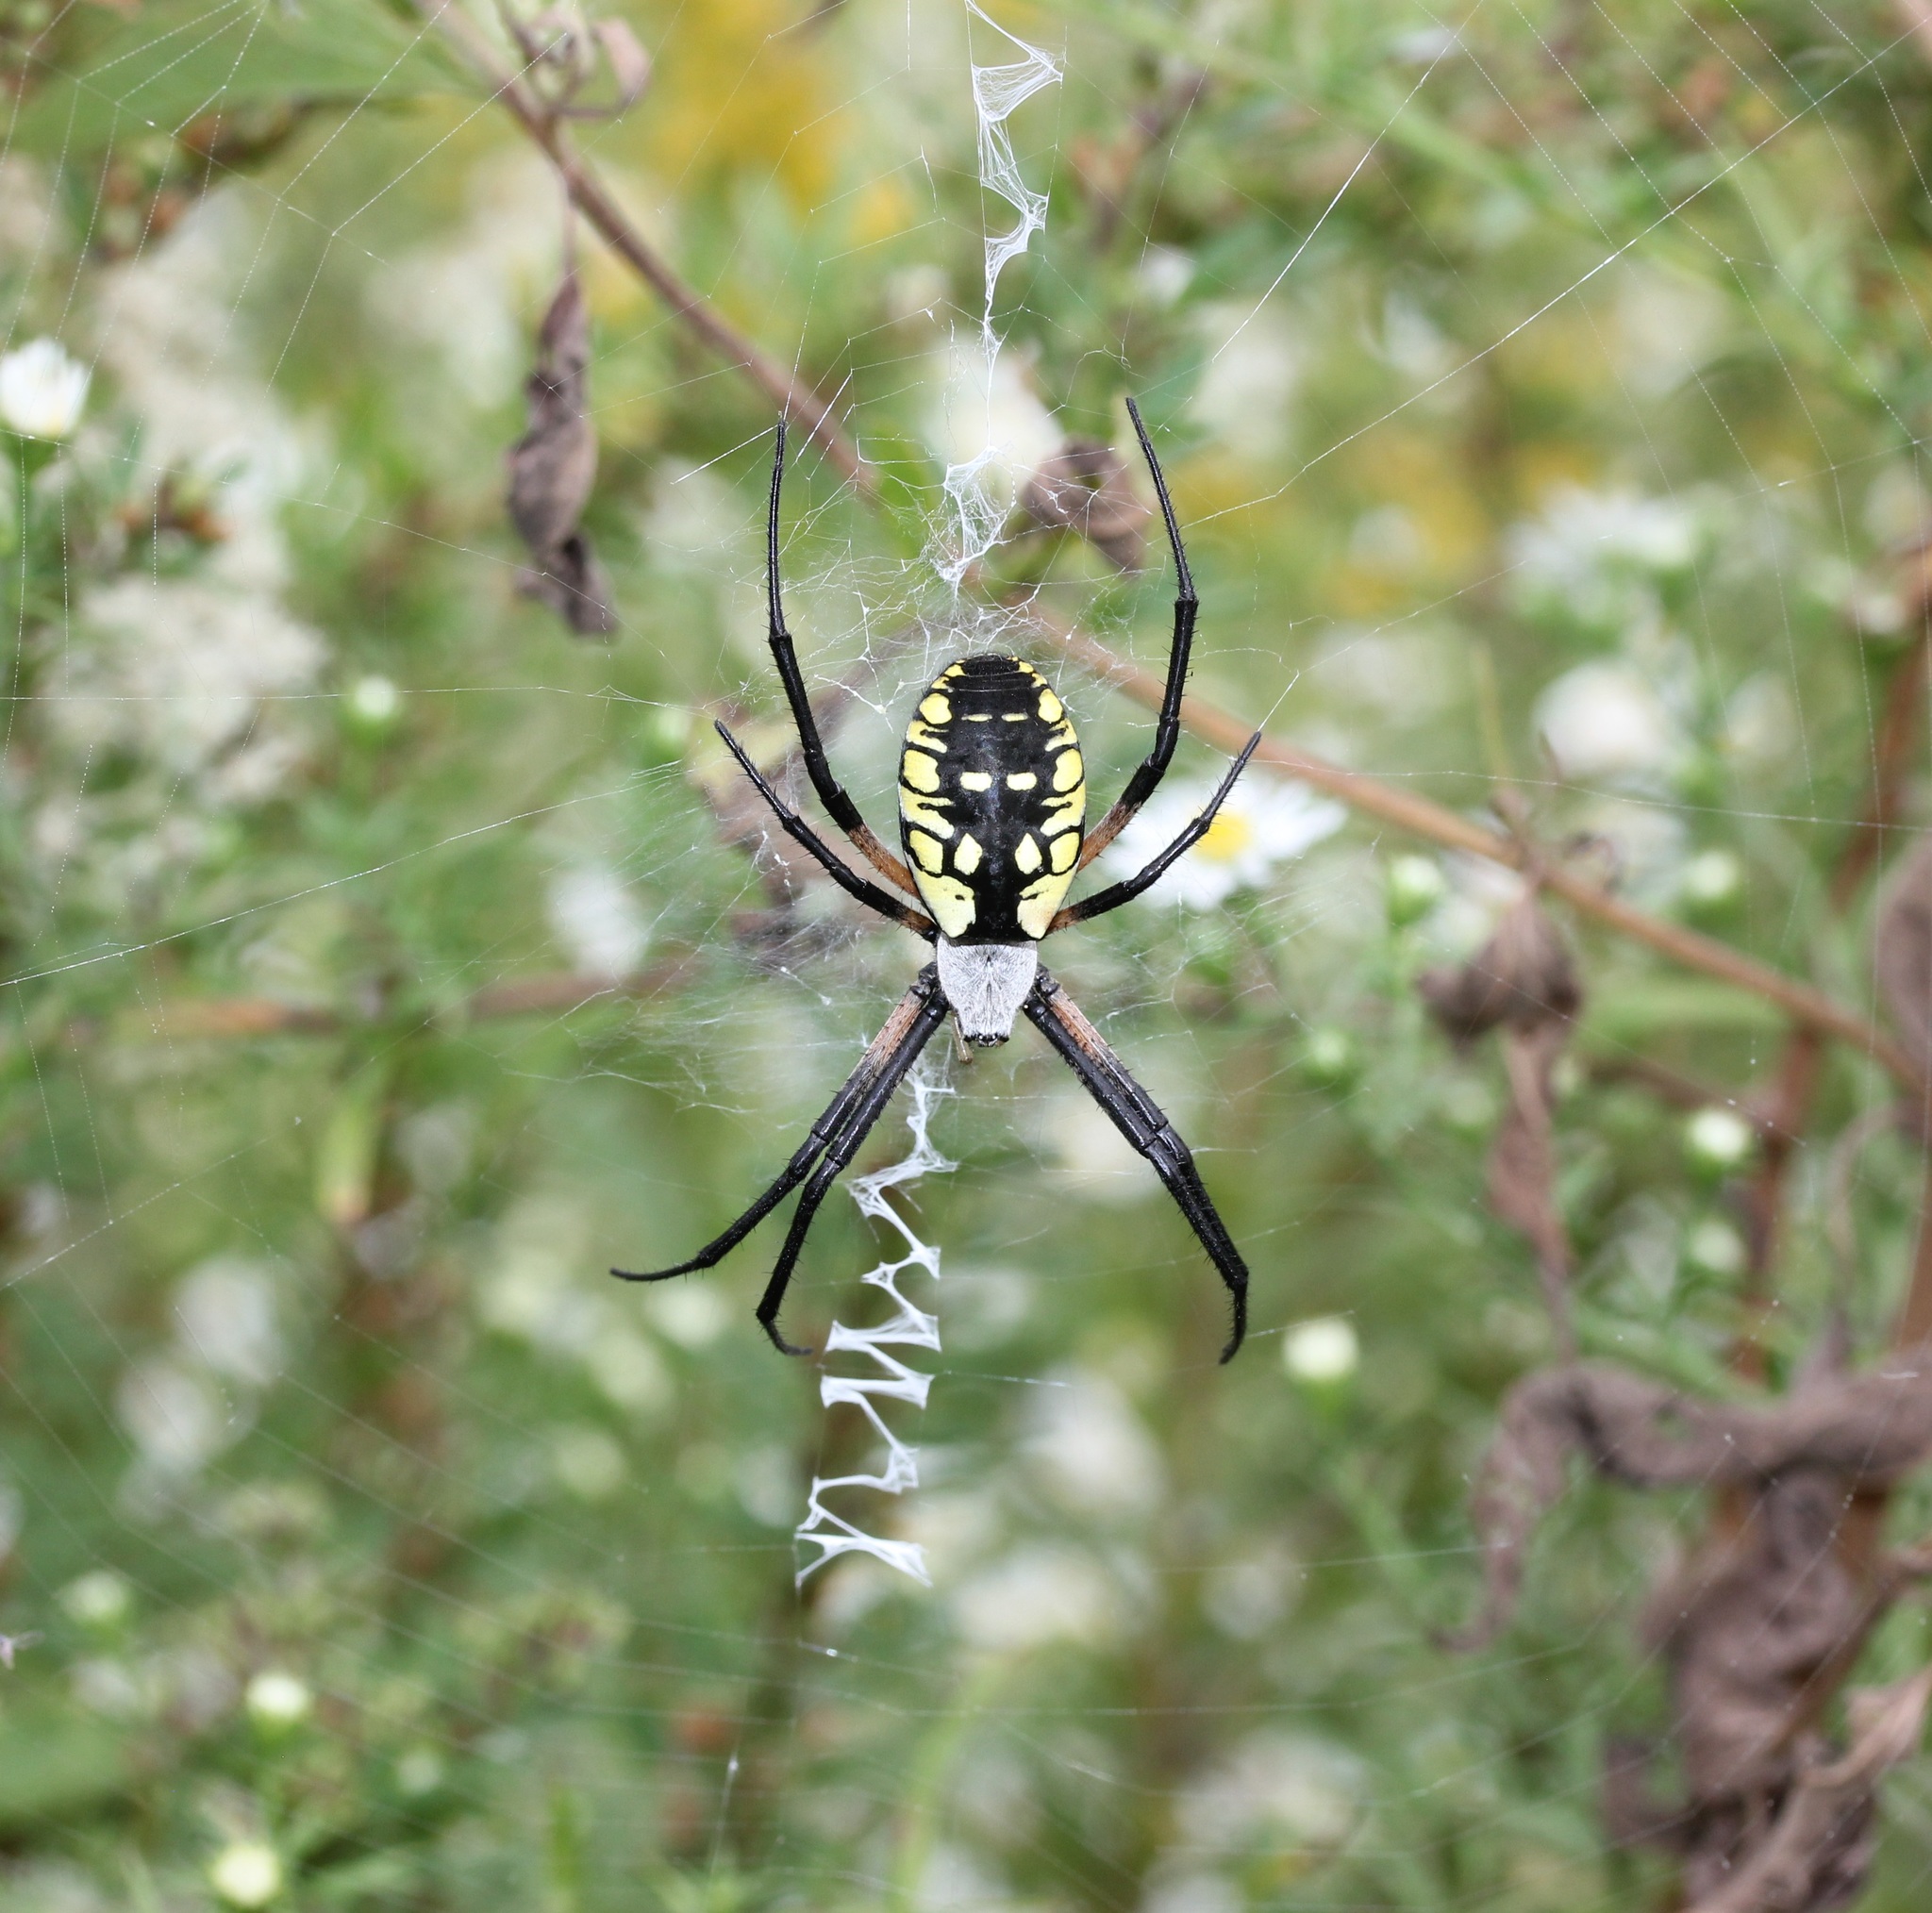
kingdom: Animalia
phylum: Arthropoda
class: Arachnida
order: Araneae
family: Araneidae
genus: Argiope
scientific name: Argiope aurantia
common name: Orb weavers
